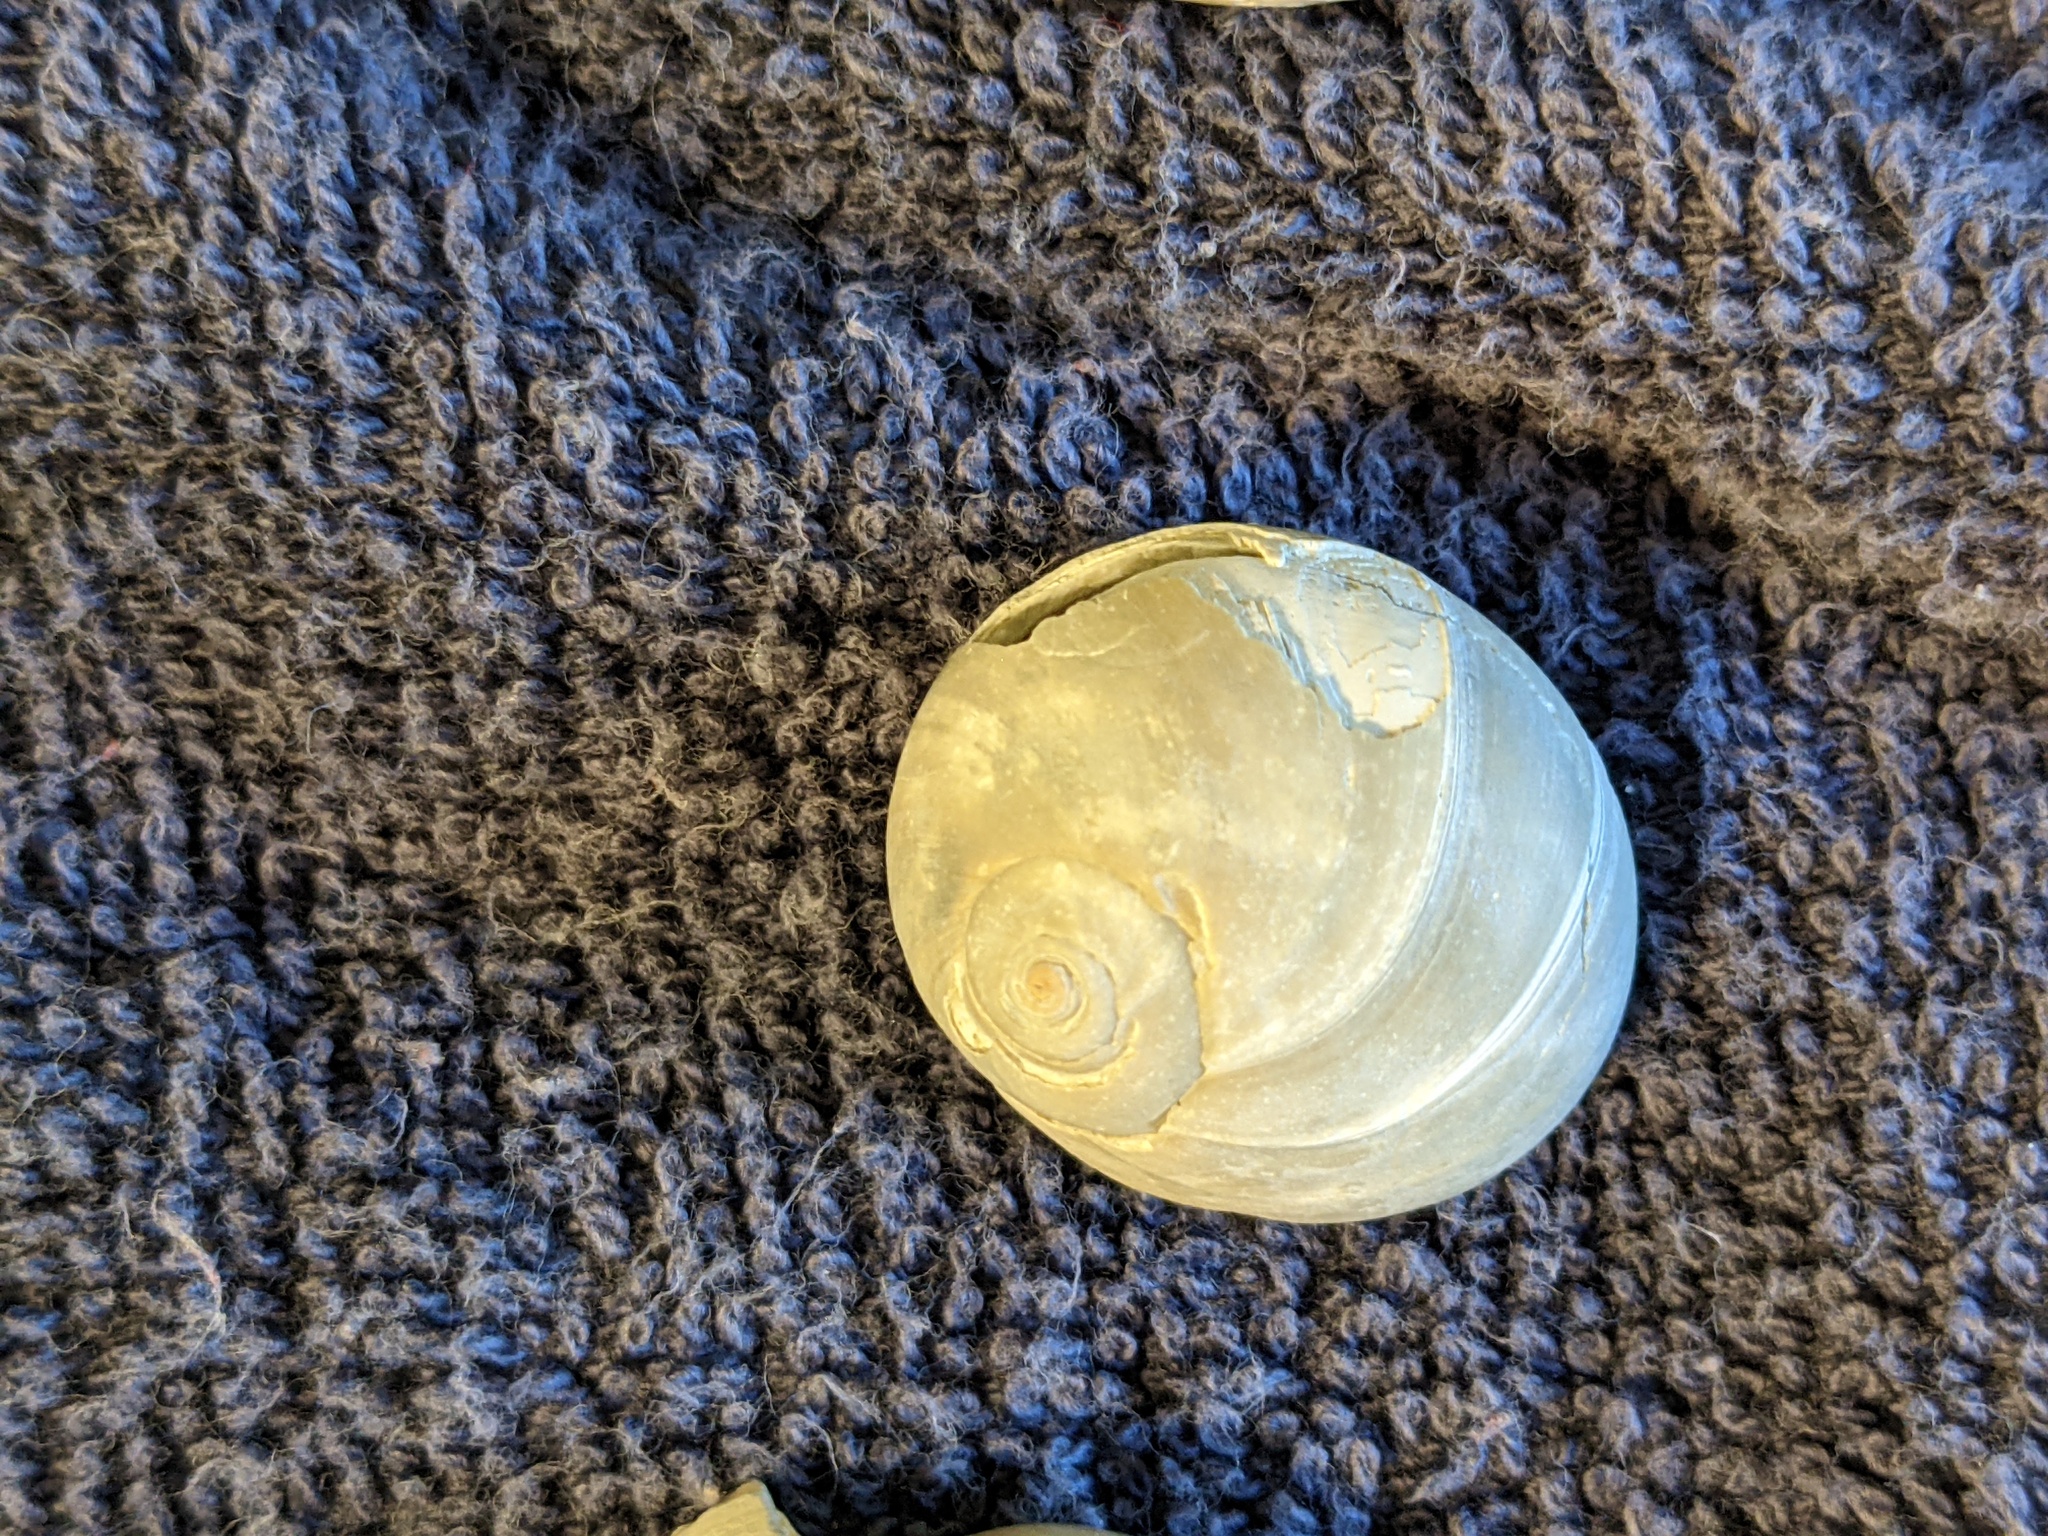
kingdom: Animalia
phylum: Mollusca
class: Gastropoda
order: Littorinimorpha
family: Naticidae
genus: Neverita
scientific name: Neverita duplicata
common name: Lobed moonsnail
